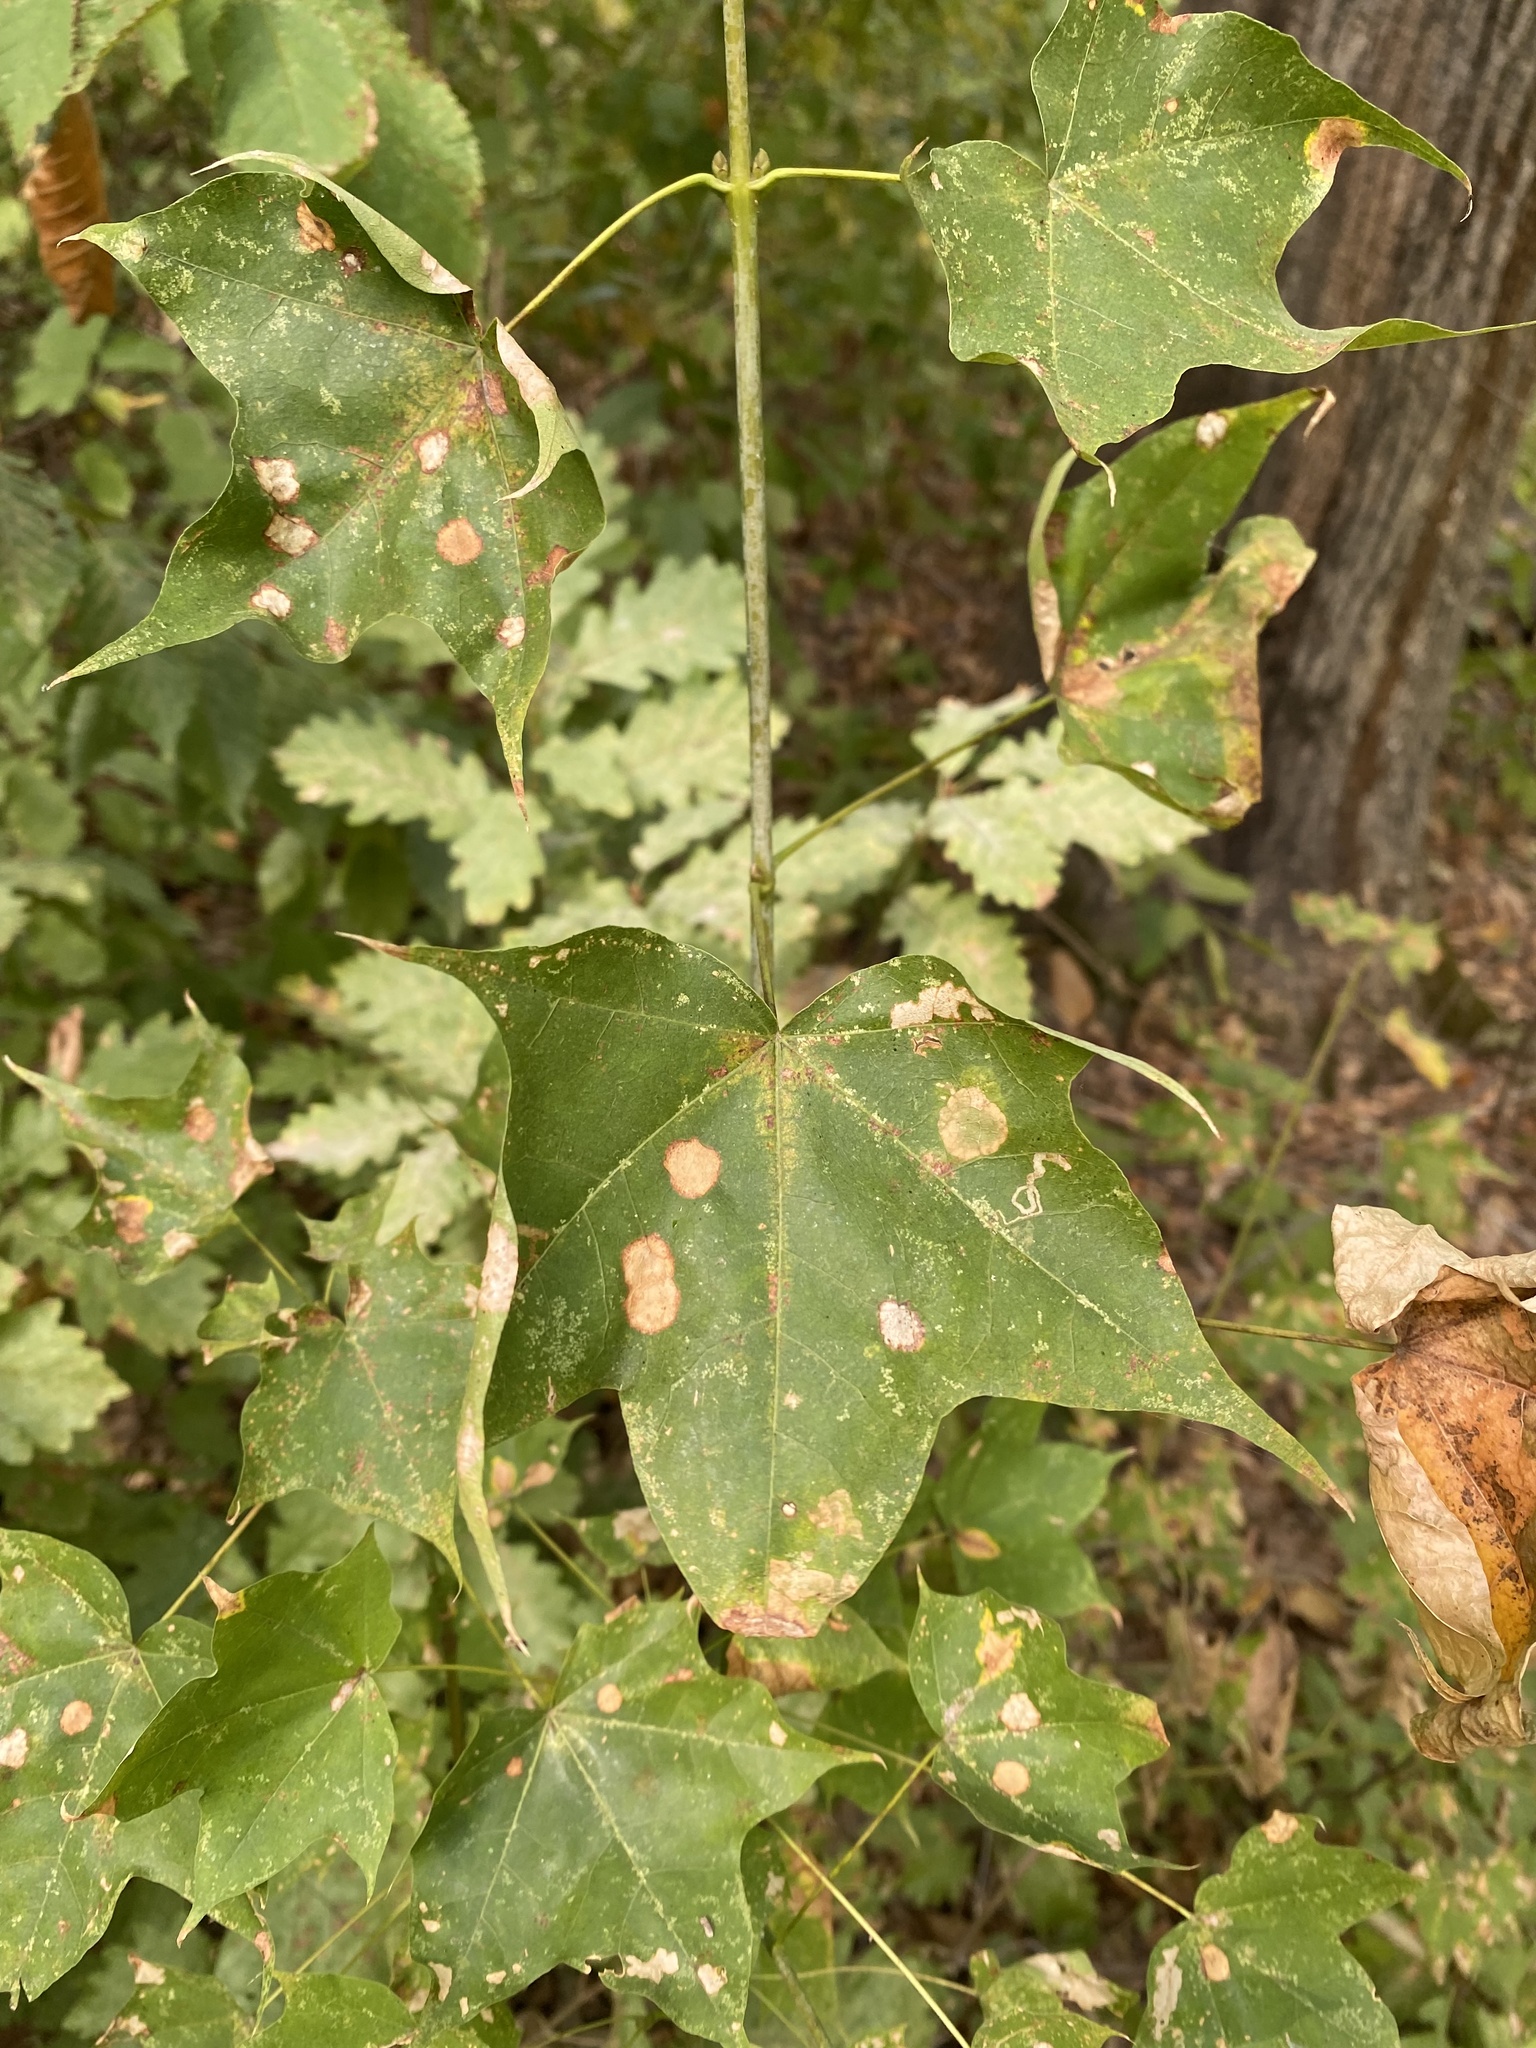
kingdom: Plantae
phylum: Tracheophyta
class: Magnoliopsida
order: Sapindales
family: Sapindaceae
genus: Acer
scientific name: Acer cappadocicum
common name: Cappadocian maple
